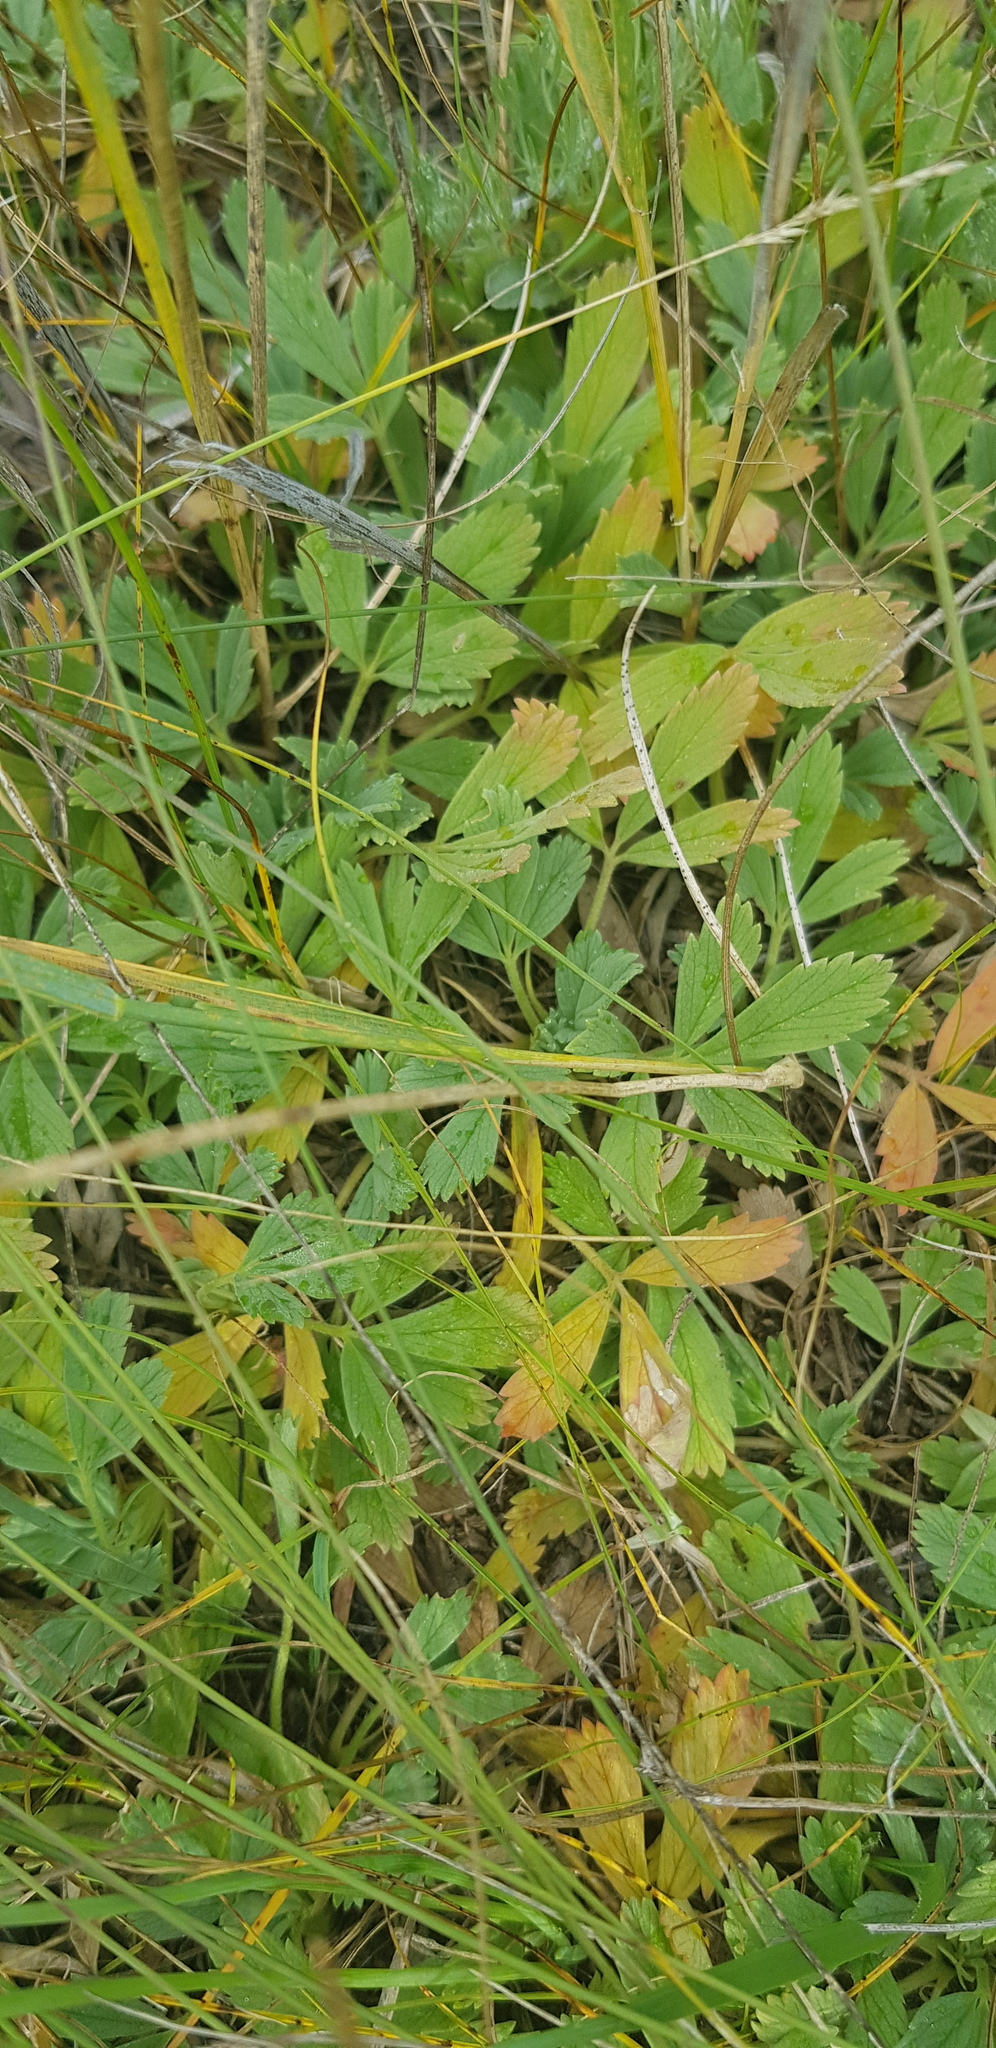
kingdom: Plantae
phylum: Tracheophyta
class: Magnoliopsida
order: Rosales
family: Rosaceae
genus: Potentilla
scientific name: Potentilla acaulis
